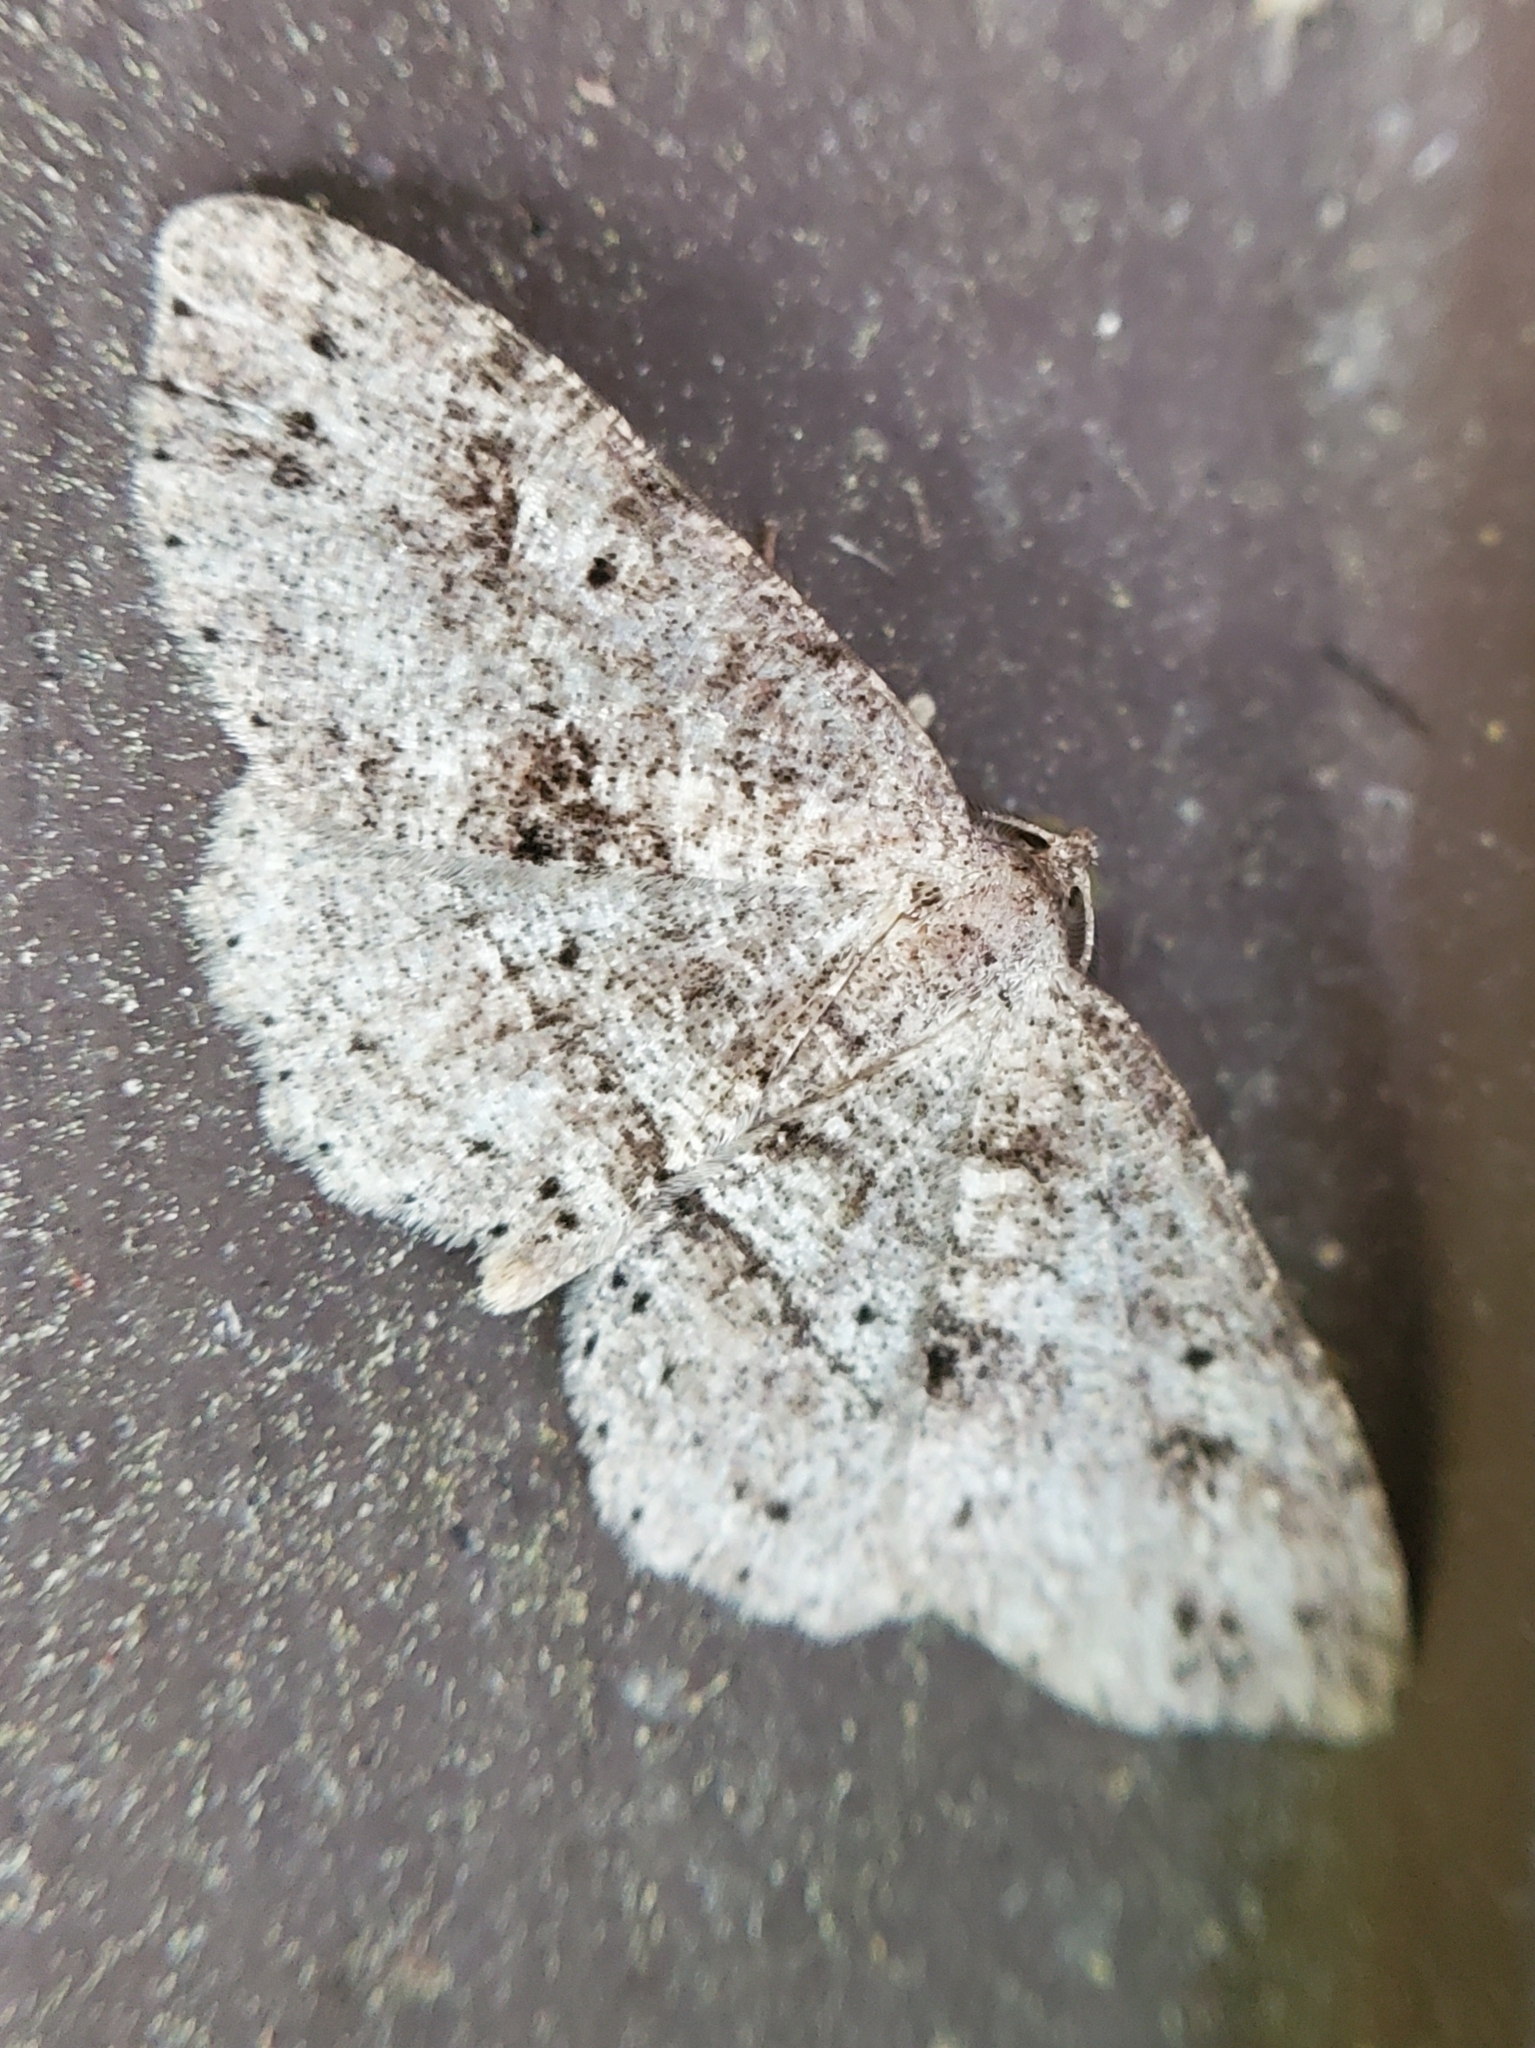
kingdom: Animalia
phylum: Arthropoda
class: Insecta
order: Lepidoptera
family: Geometridae
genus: Melanolophia
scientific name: Melanolophia canadaria
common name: Canadian melanolophia
